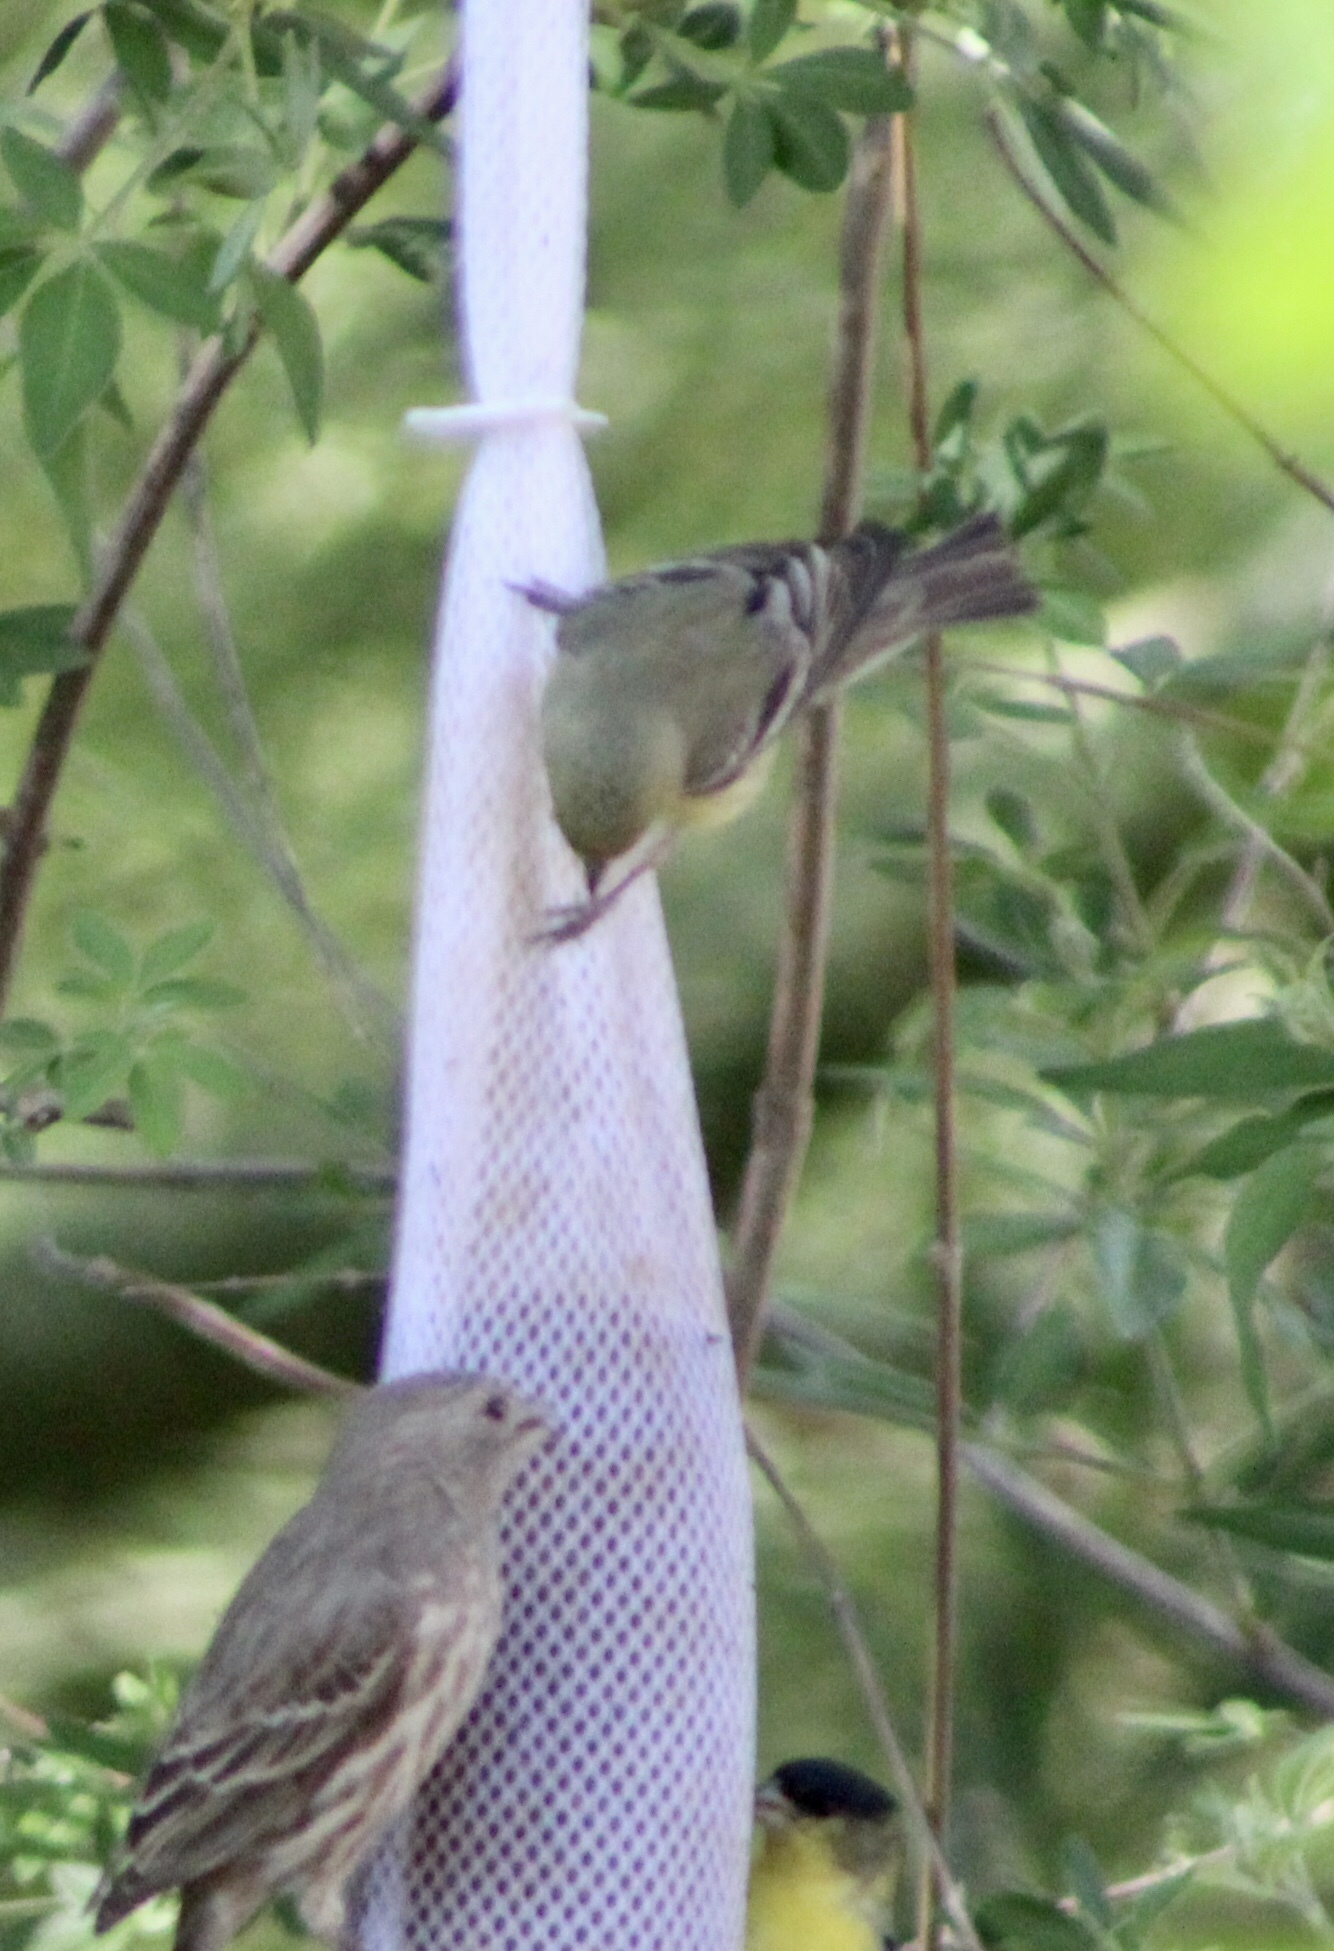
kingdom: Animalia
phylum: Chordata
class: Aves
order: Passeriformes
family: Fringillidae
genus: Spinus
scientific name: Spinus psaltria
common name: Lesser goldfinch
